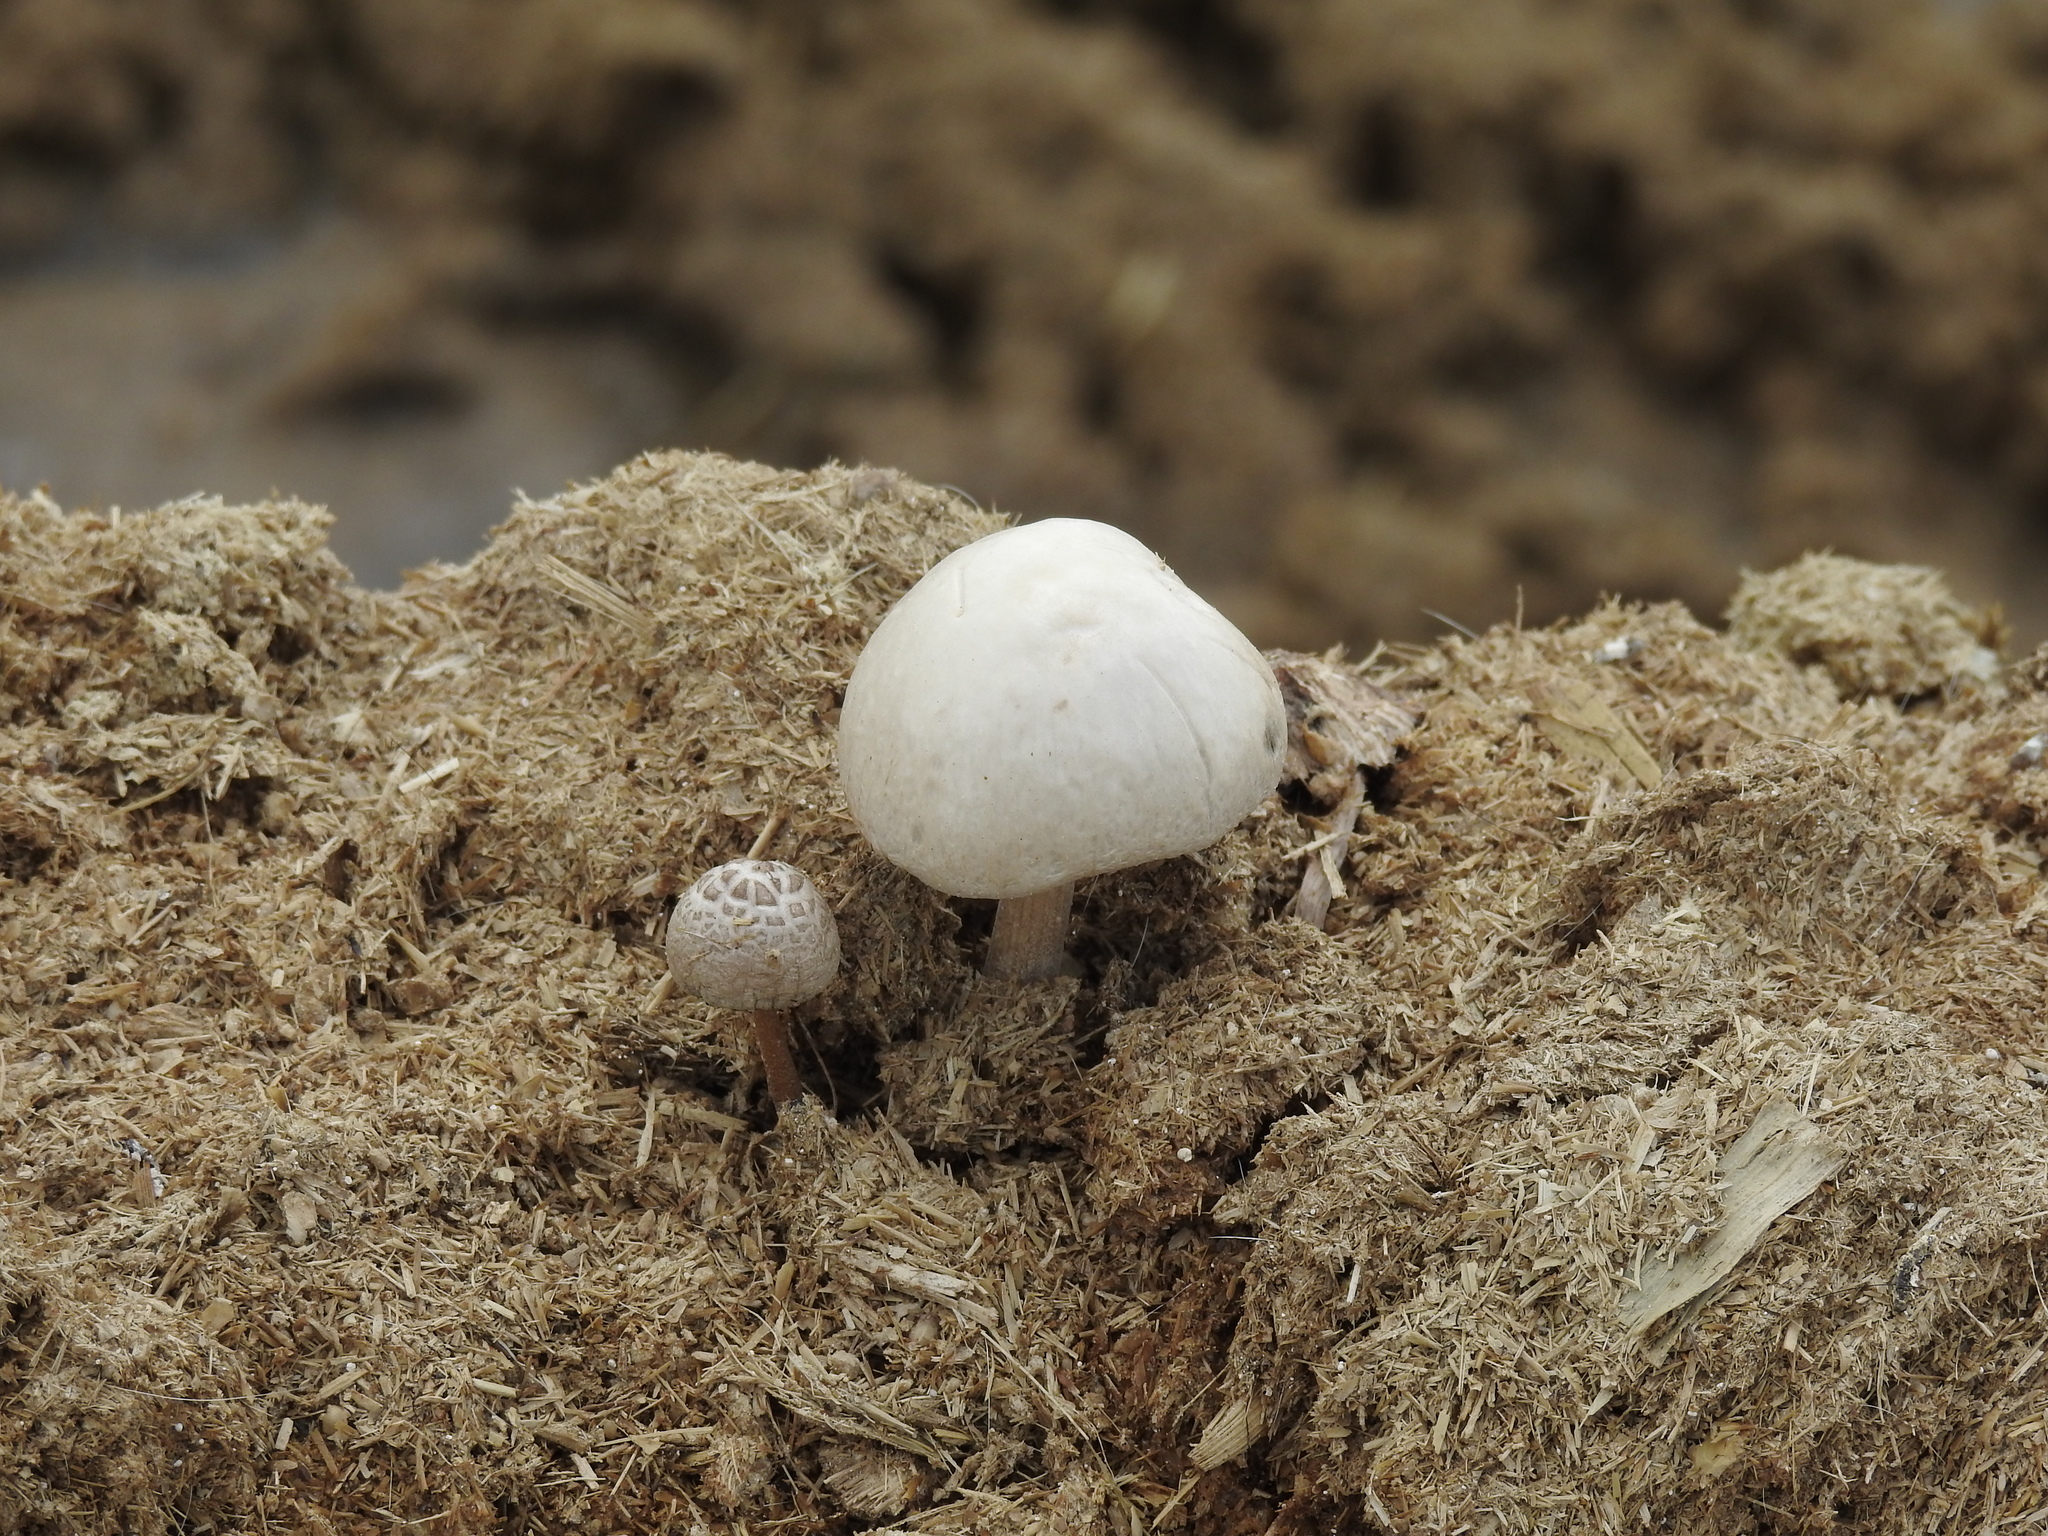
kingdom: Fungi
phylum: Basidiomycota
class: Agaricomycetes
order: Agaricales
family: Bolbitiaceae
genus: Panaeolus
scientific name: Panaeolus antillarum
